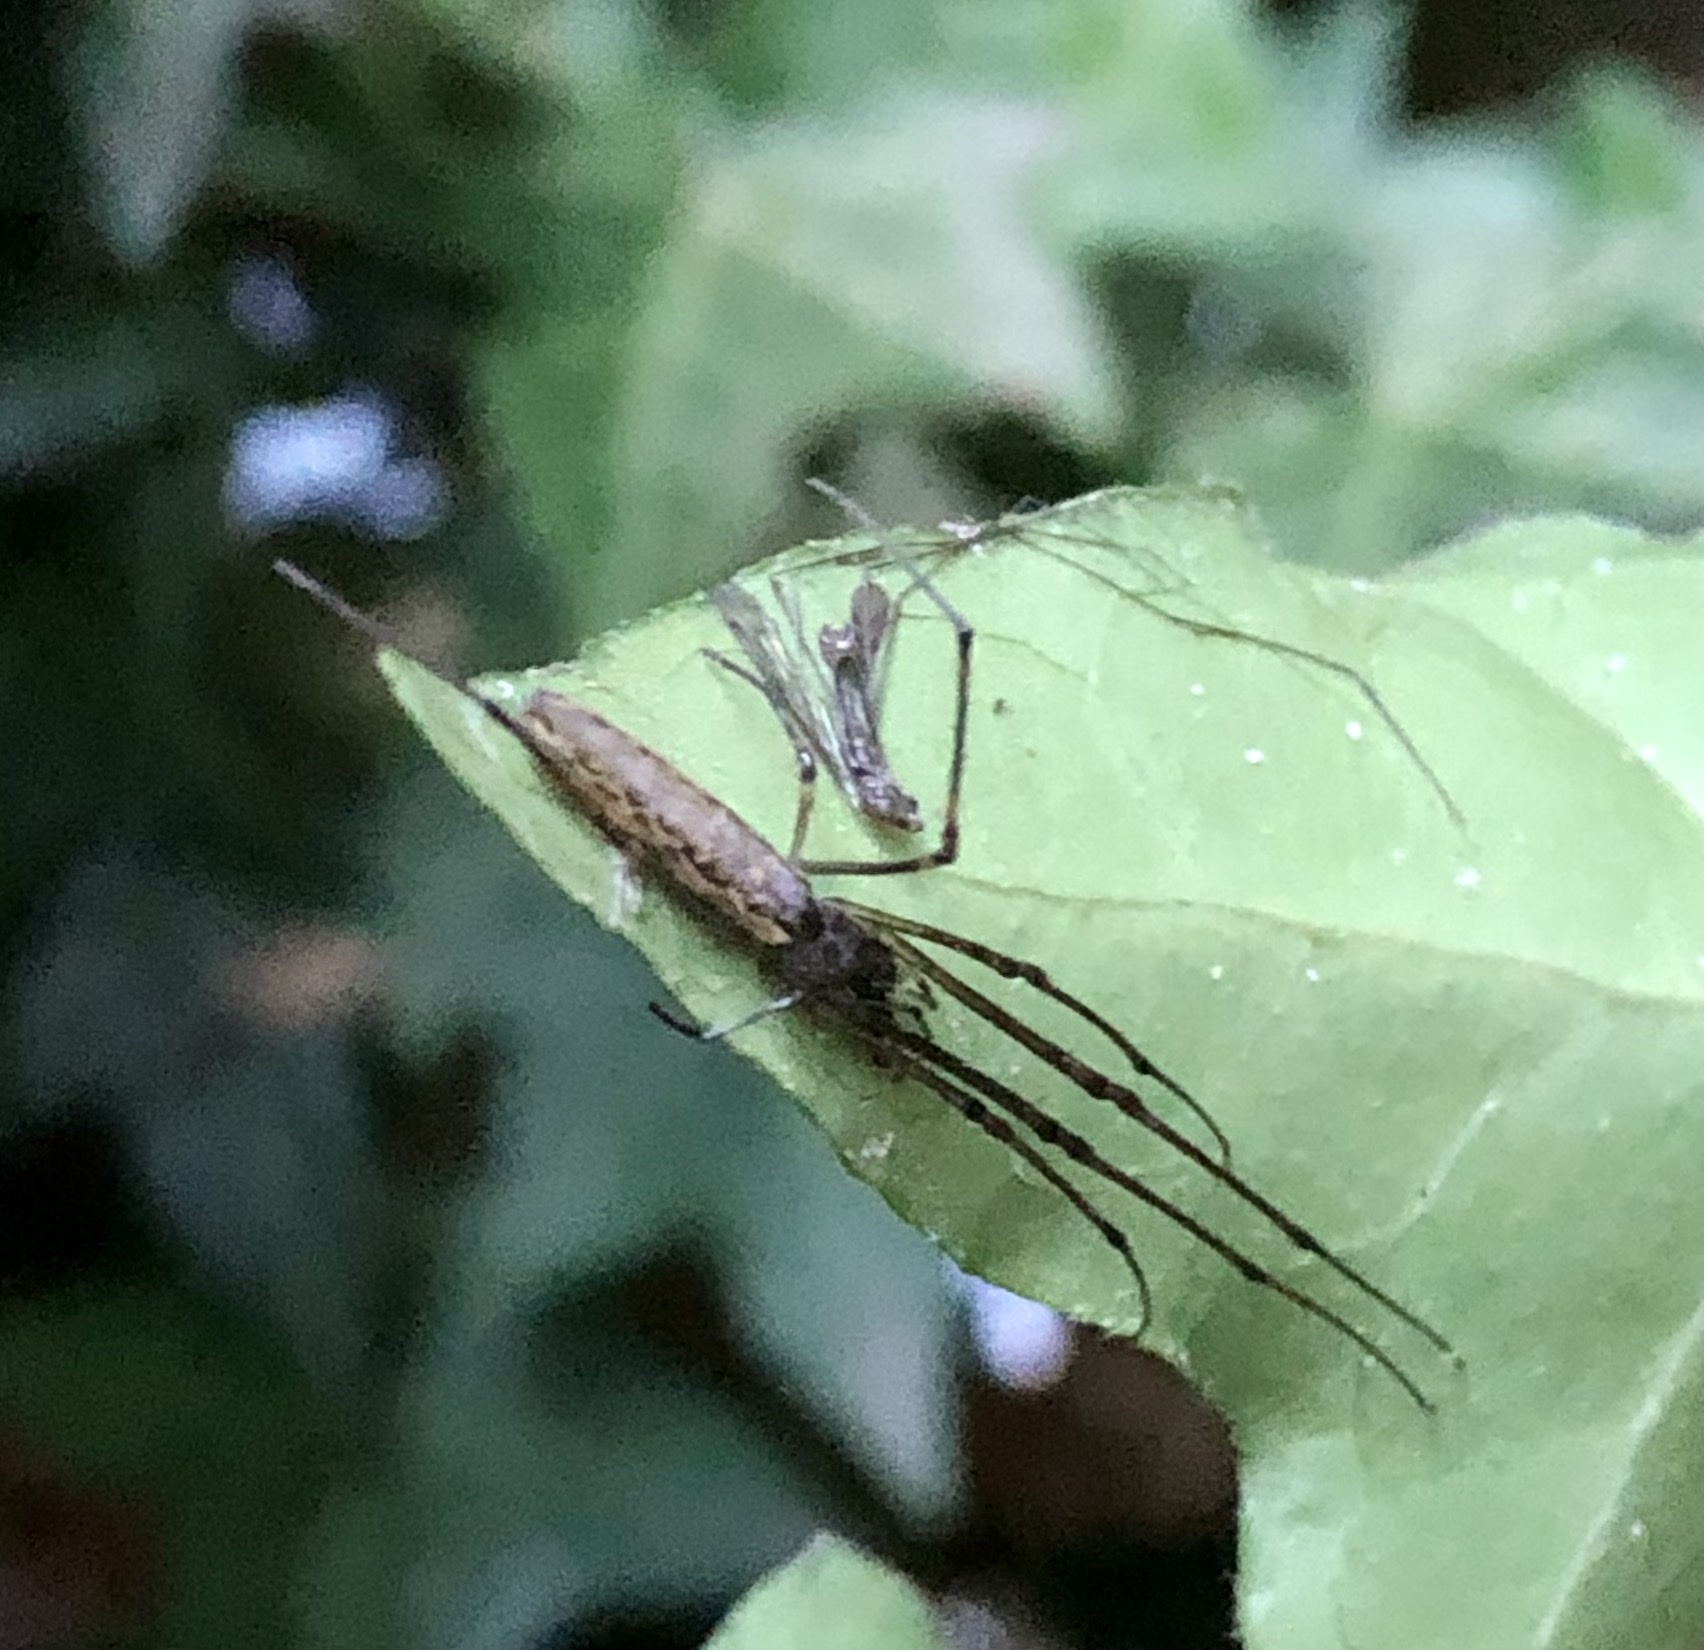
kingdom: Animalia
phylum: Arthropoda
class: Arachnida
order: Araneae
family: Tetragnathidae
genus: Tetragnatha
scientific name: Tetragnatha
